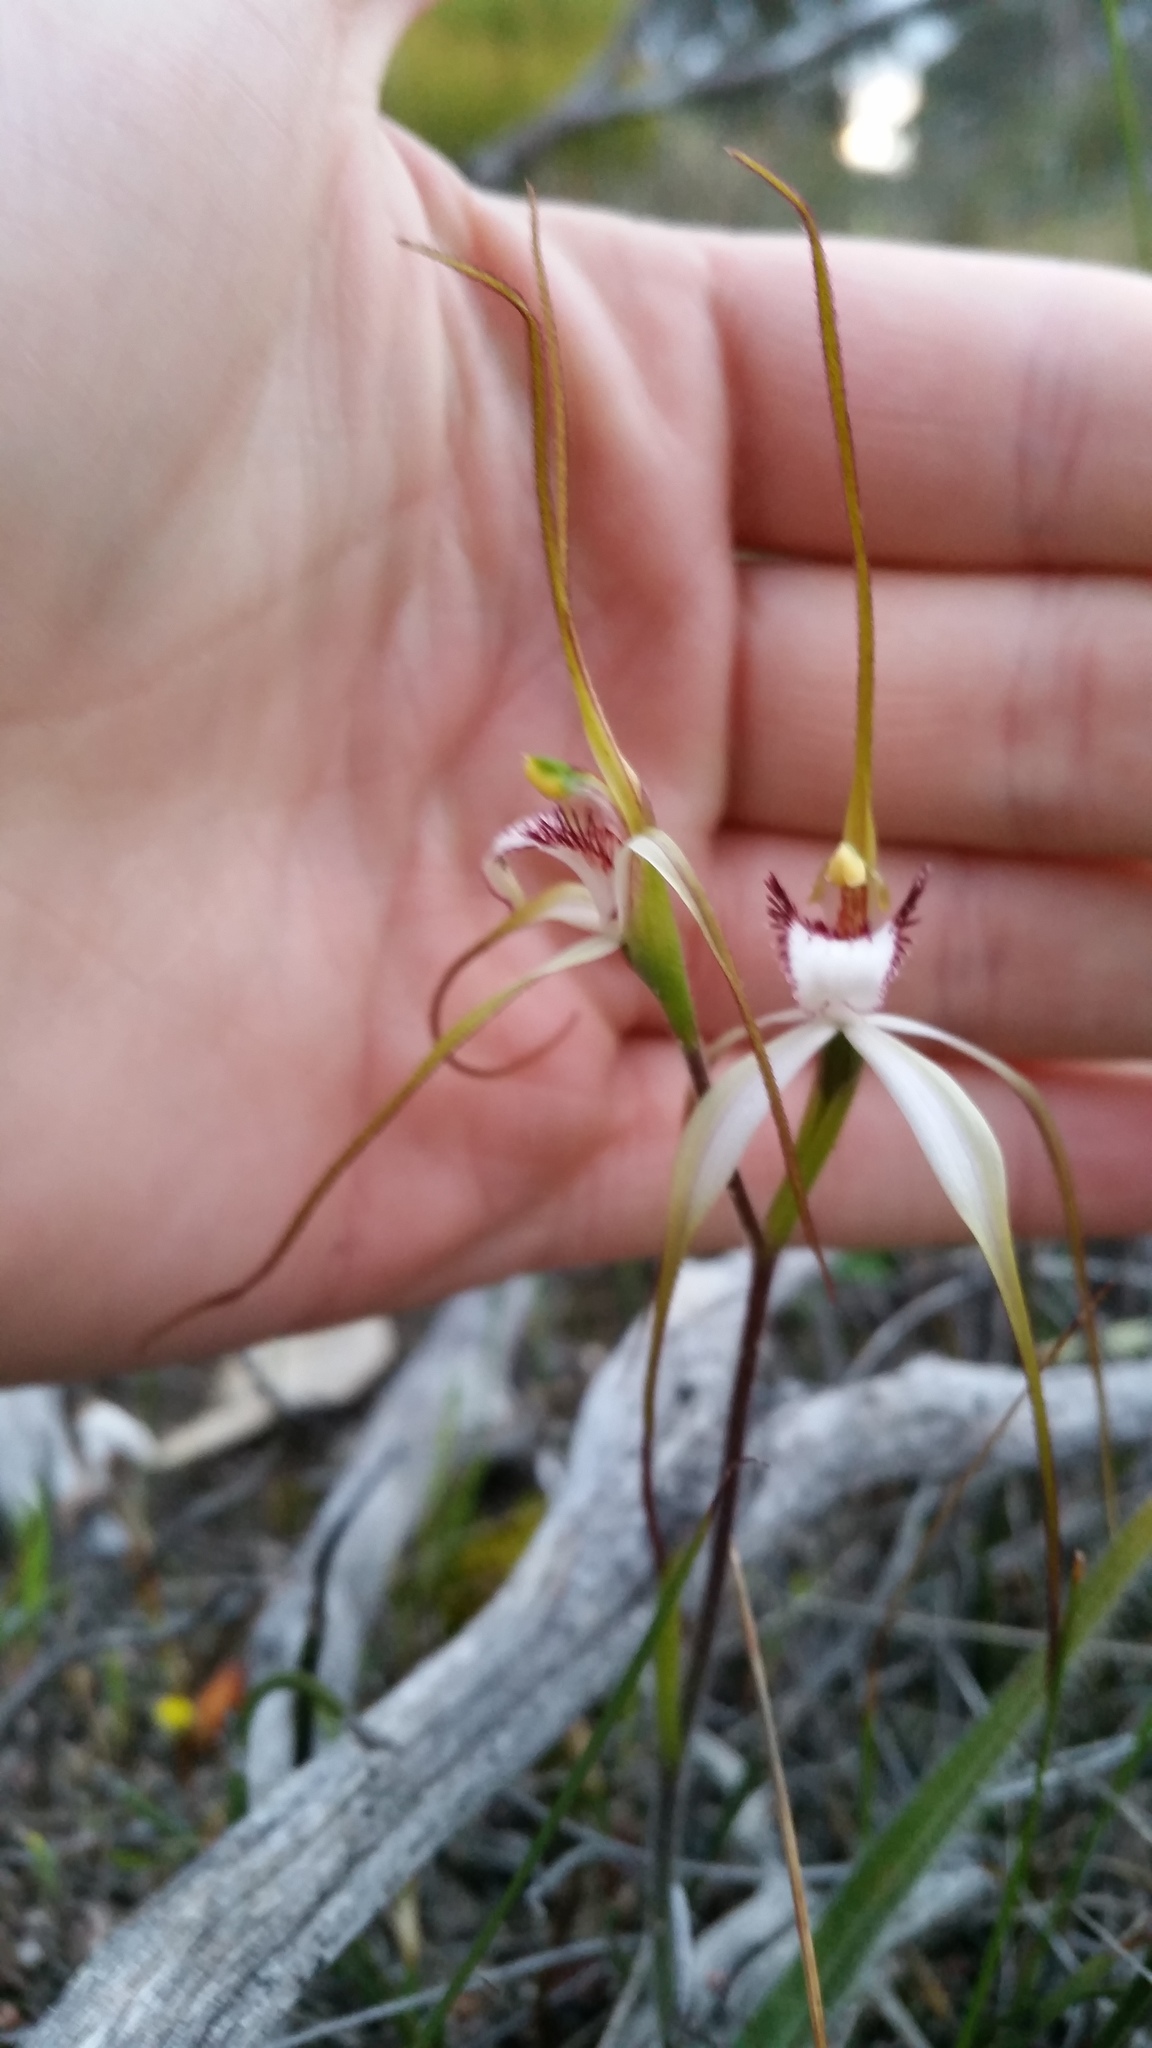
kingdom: Plantae
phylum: Tracheophyta
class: Liliopsida
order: Asparagales
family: Orchidaceae
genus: Caladenia
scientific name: Caladenia longicauda
